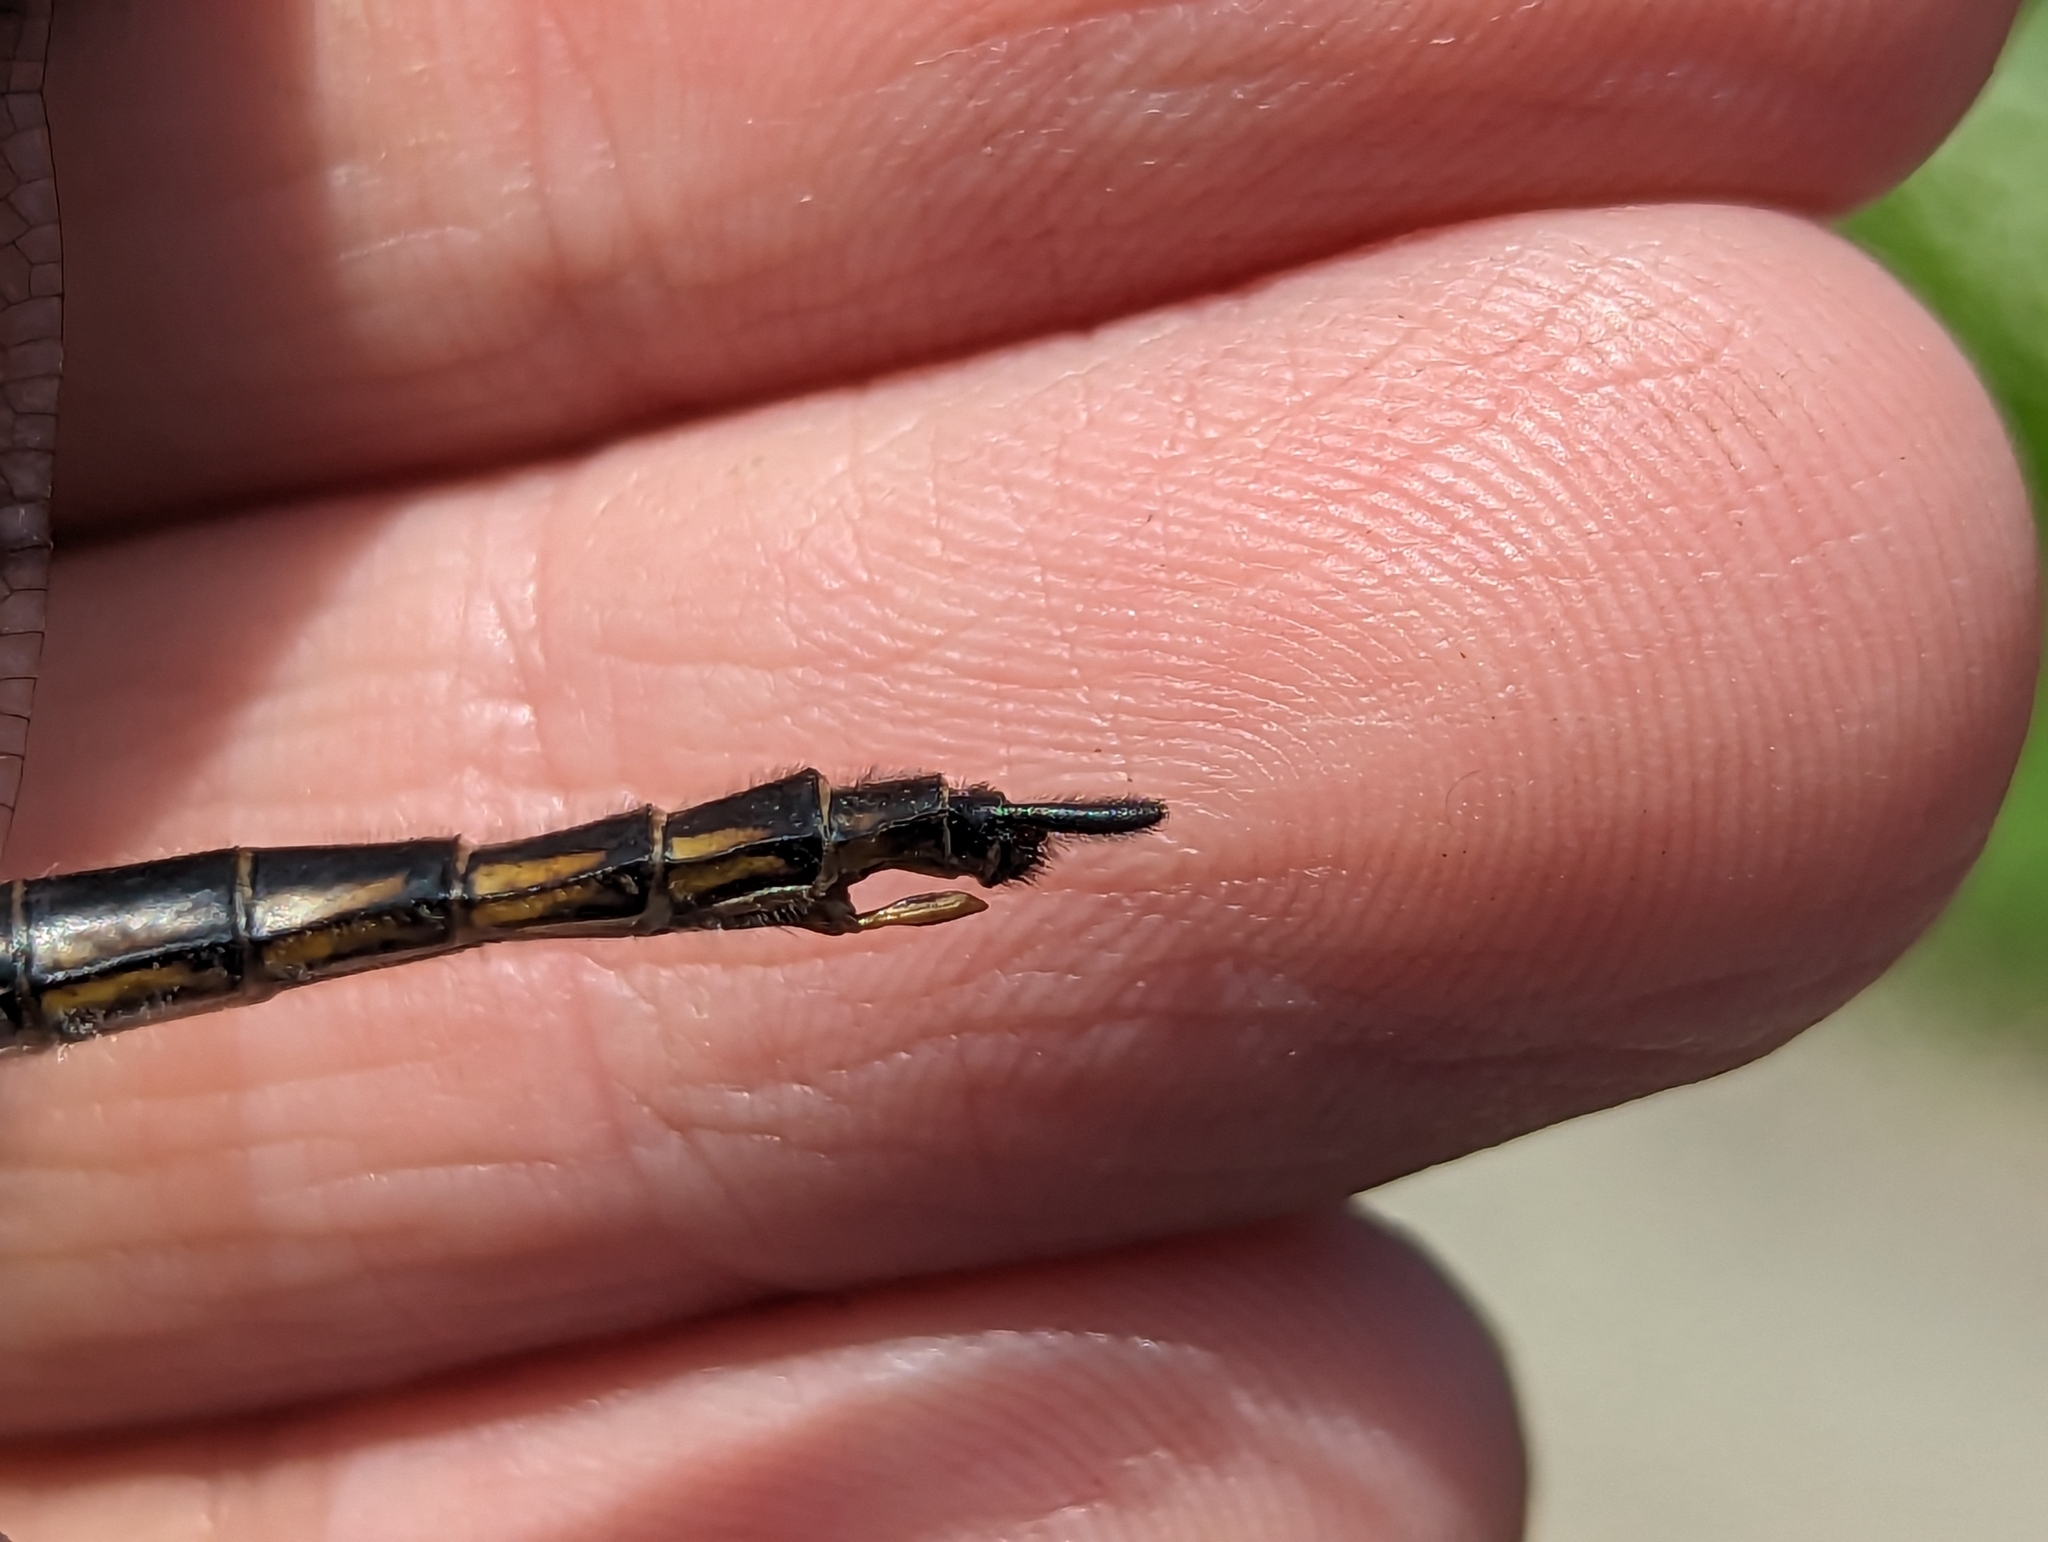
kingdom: Animalia
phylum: Arthropoda
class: Insecta
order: Odonata
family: Corduliidae
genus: Epitheca
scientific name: Epitheca spinigera
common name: Spiny baskettail
